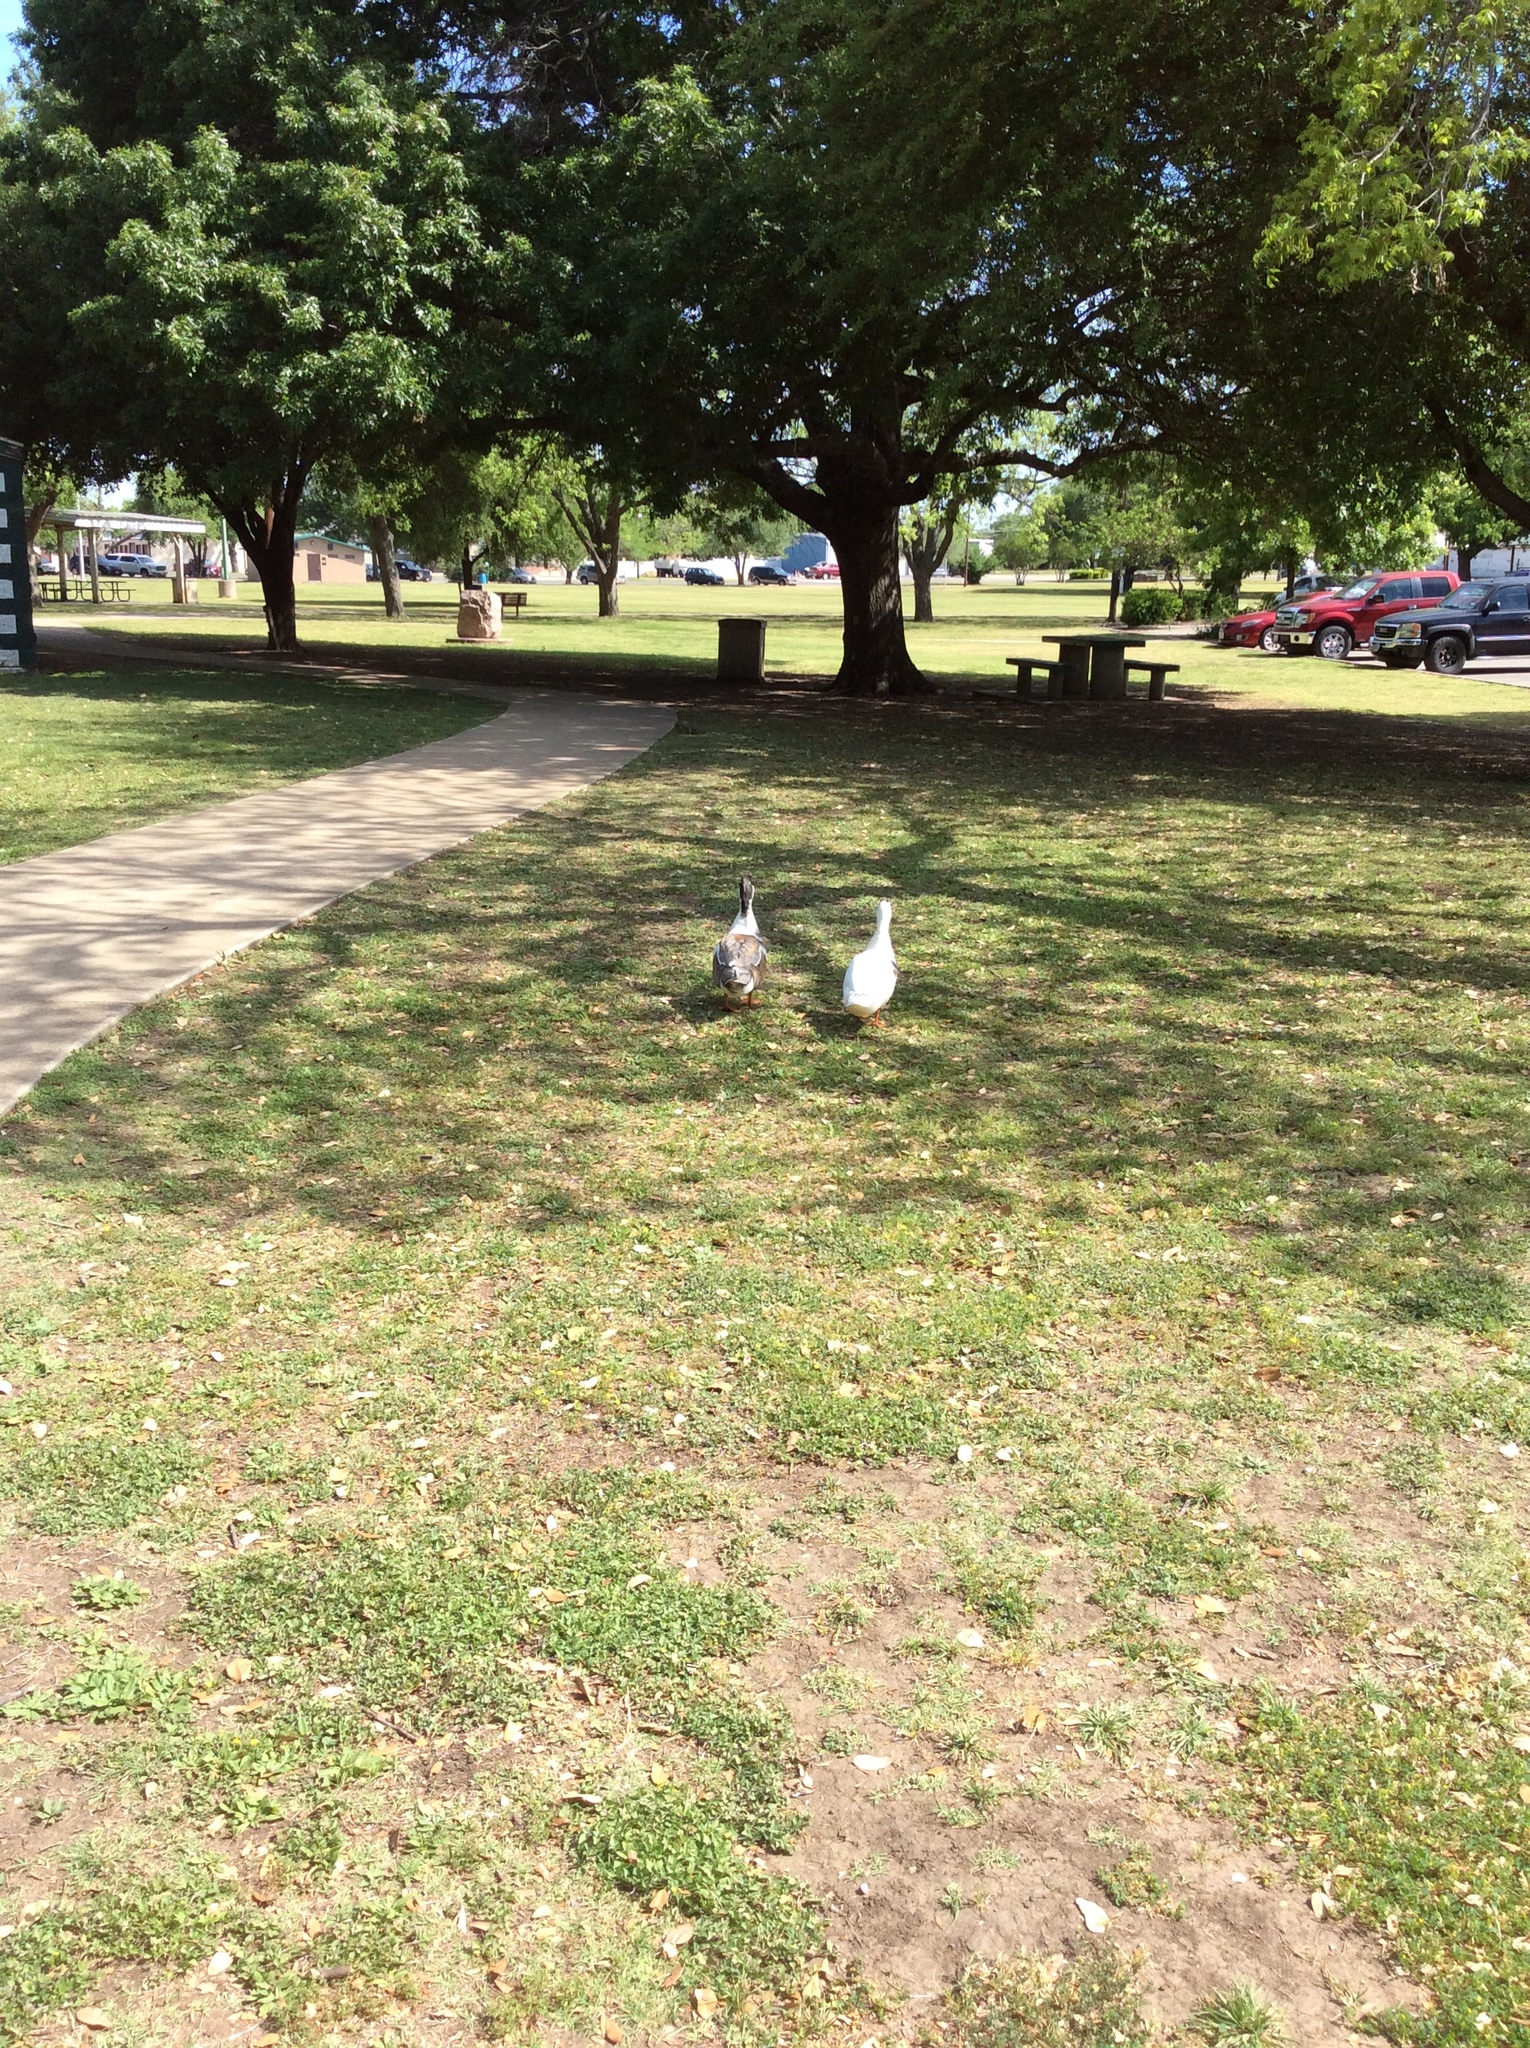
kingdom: Animalia
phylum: Chordata
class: Aves
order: Anseriformes
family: Anatidae
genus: Anas
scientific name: Anas platyrhynchos
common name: Mallard
